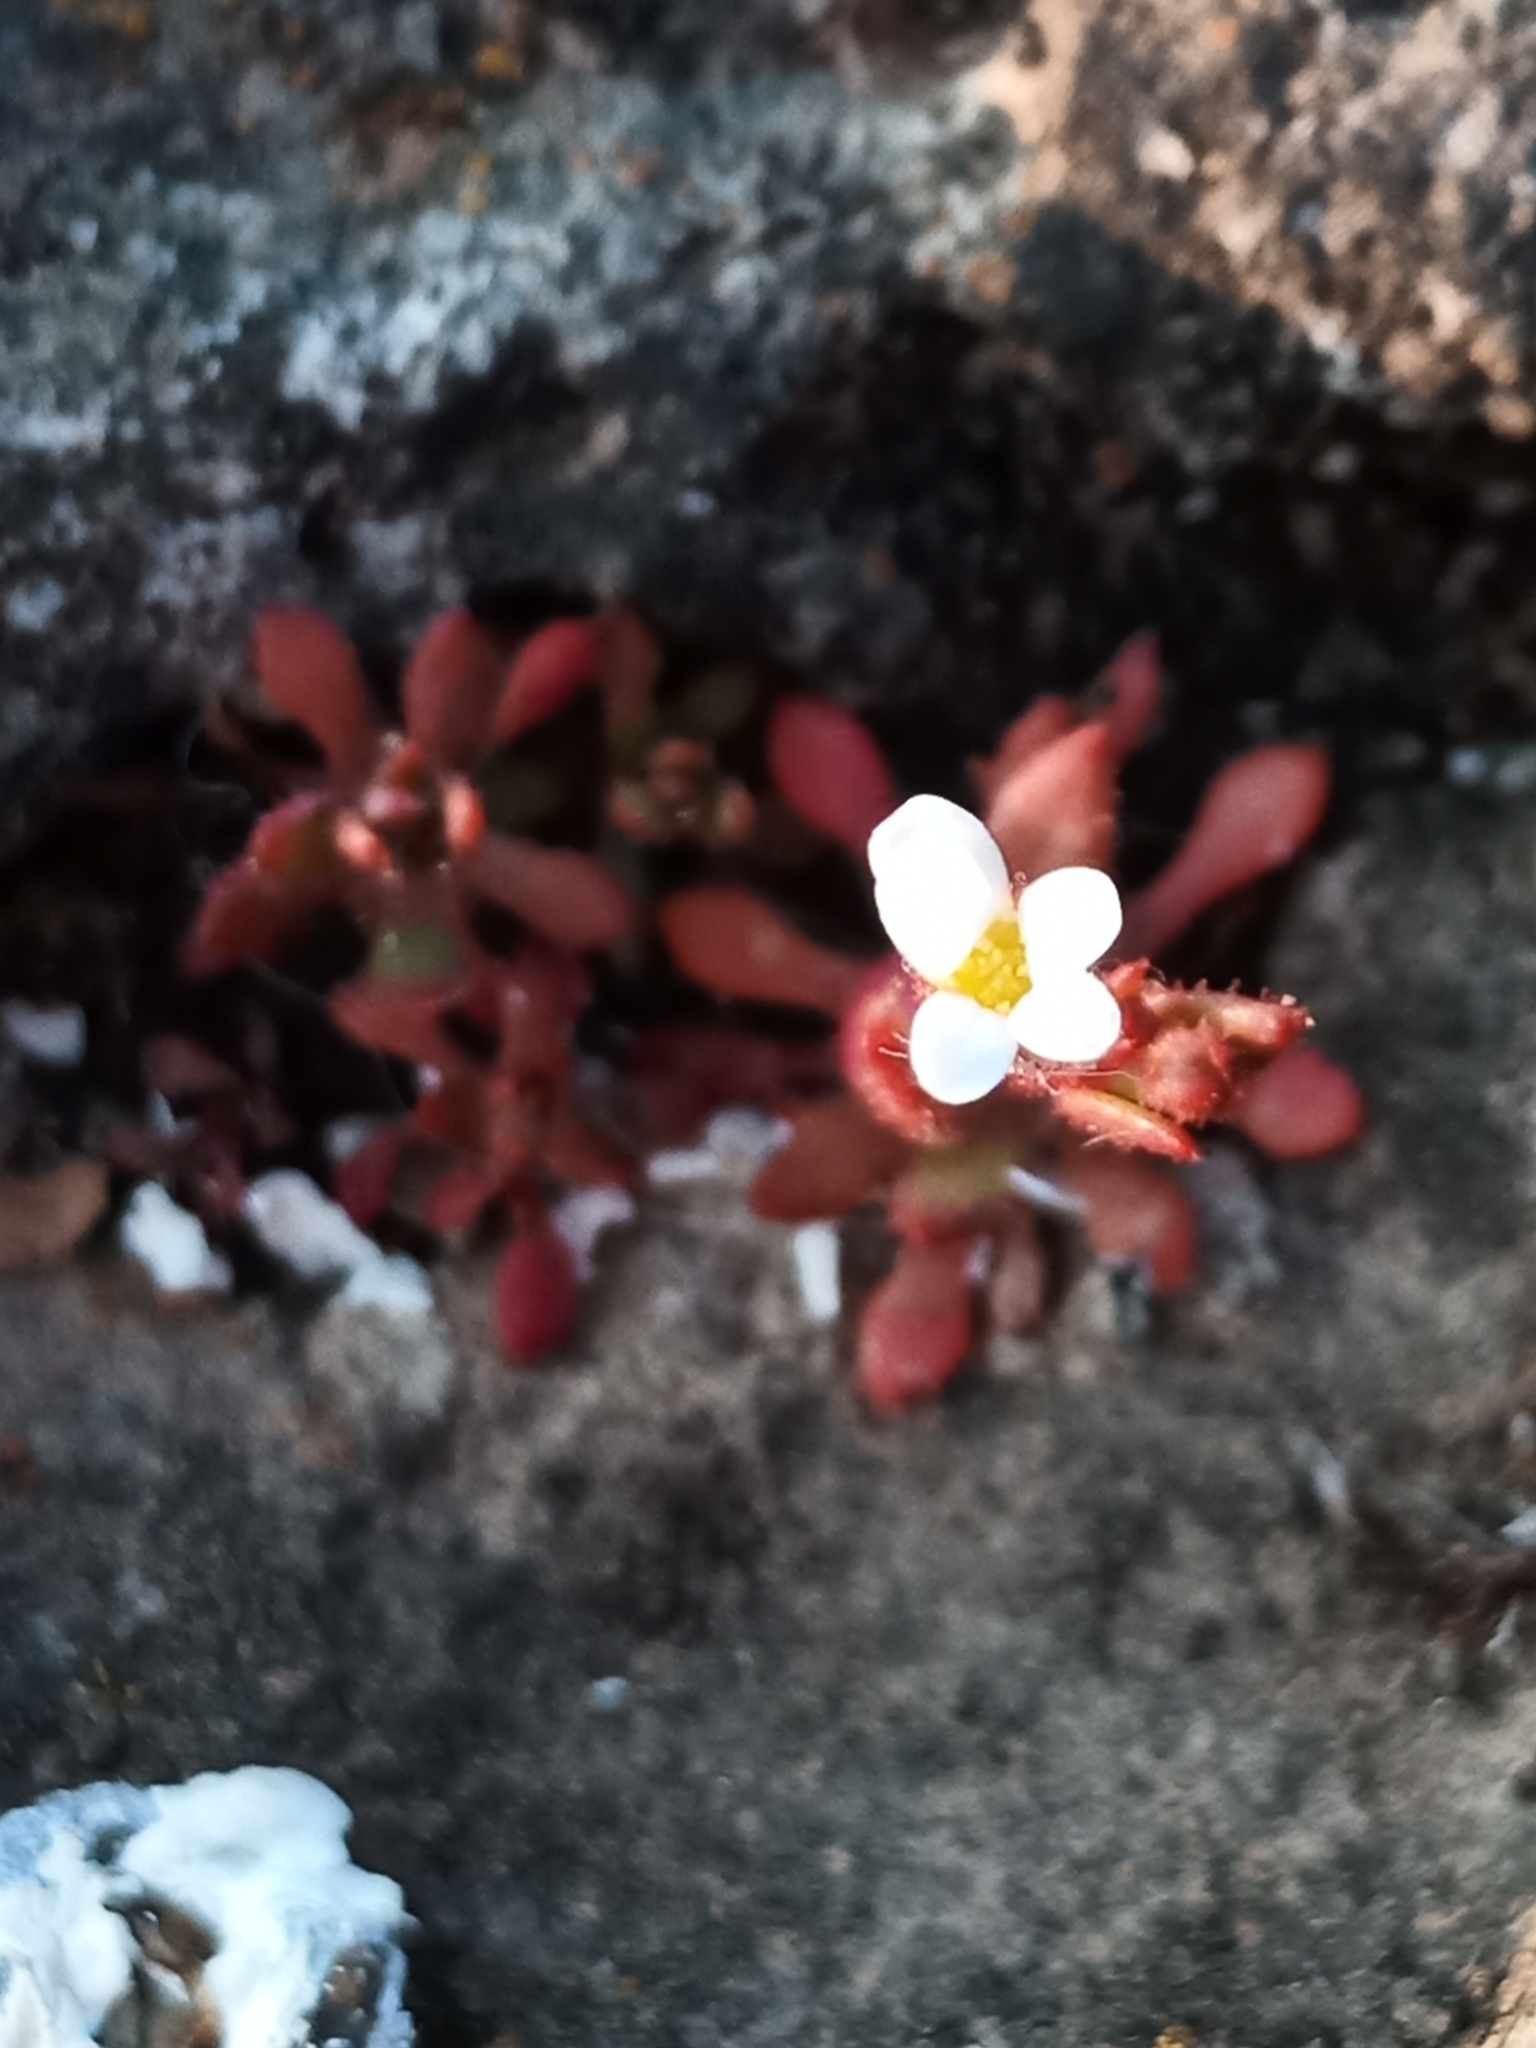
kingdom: Plantae
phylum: Tracheophyta
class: Magnoliopsida
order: Saxifragales
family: Saxifragaceae
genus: Saxifraga
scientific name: Saxifraga tridactylites
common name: Rue-leaved saxifrage
